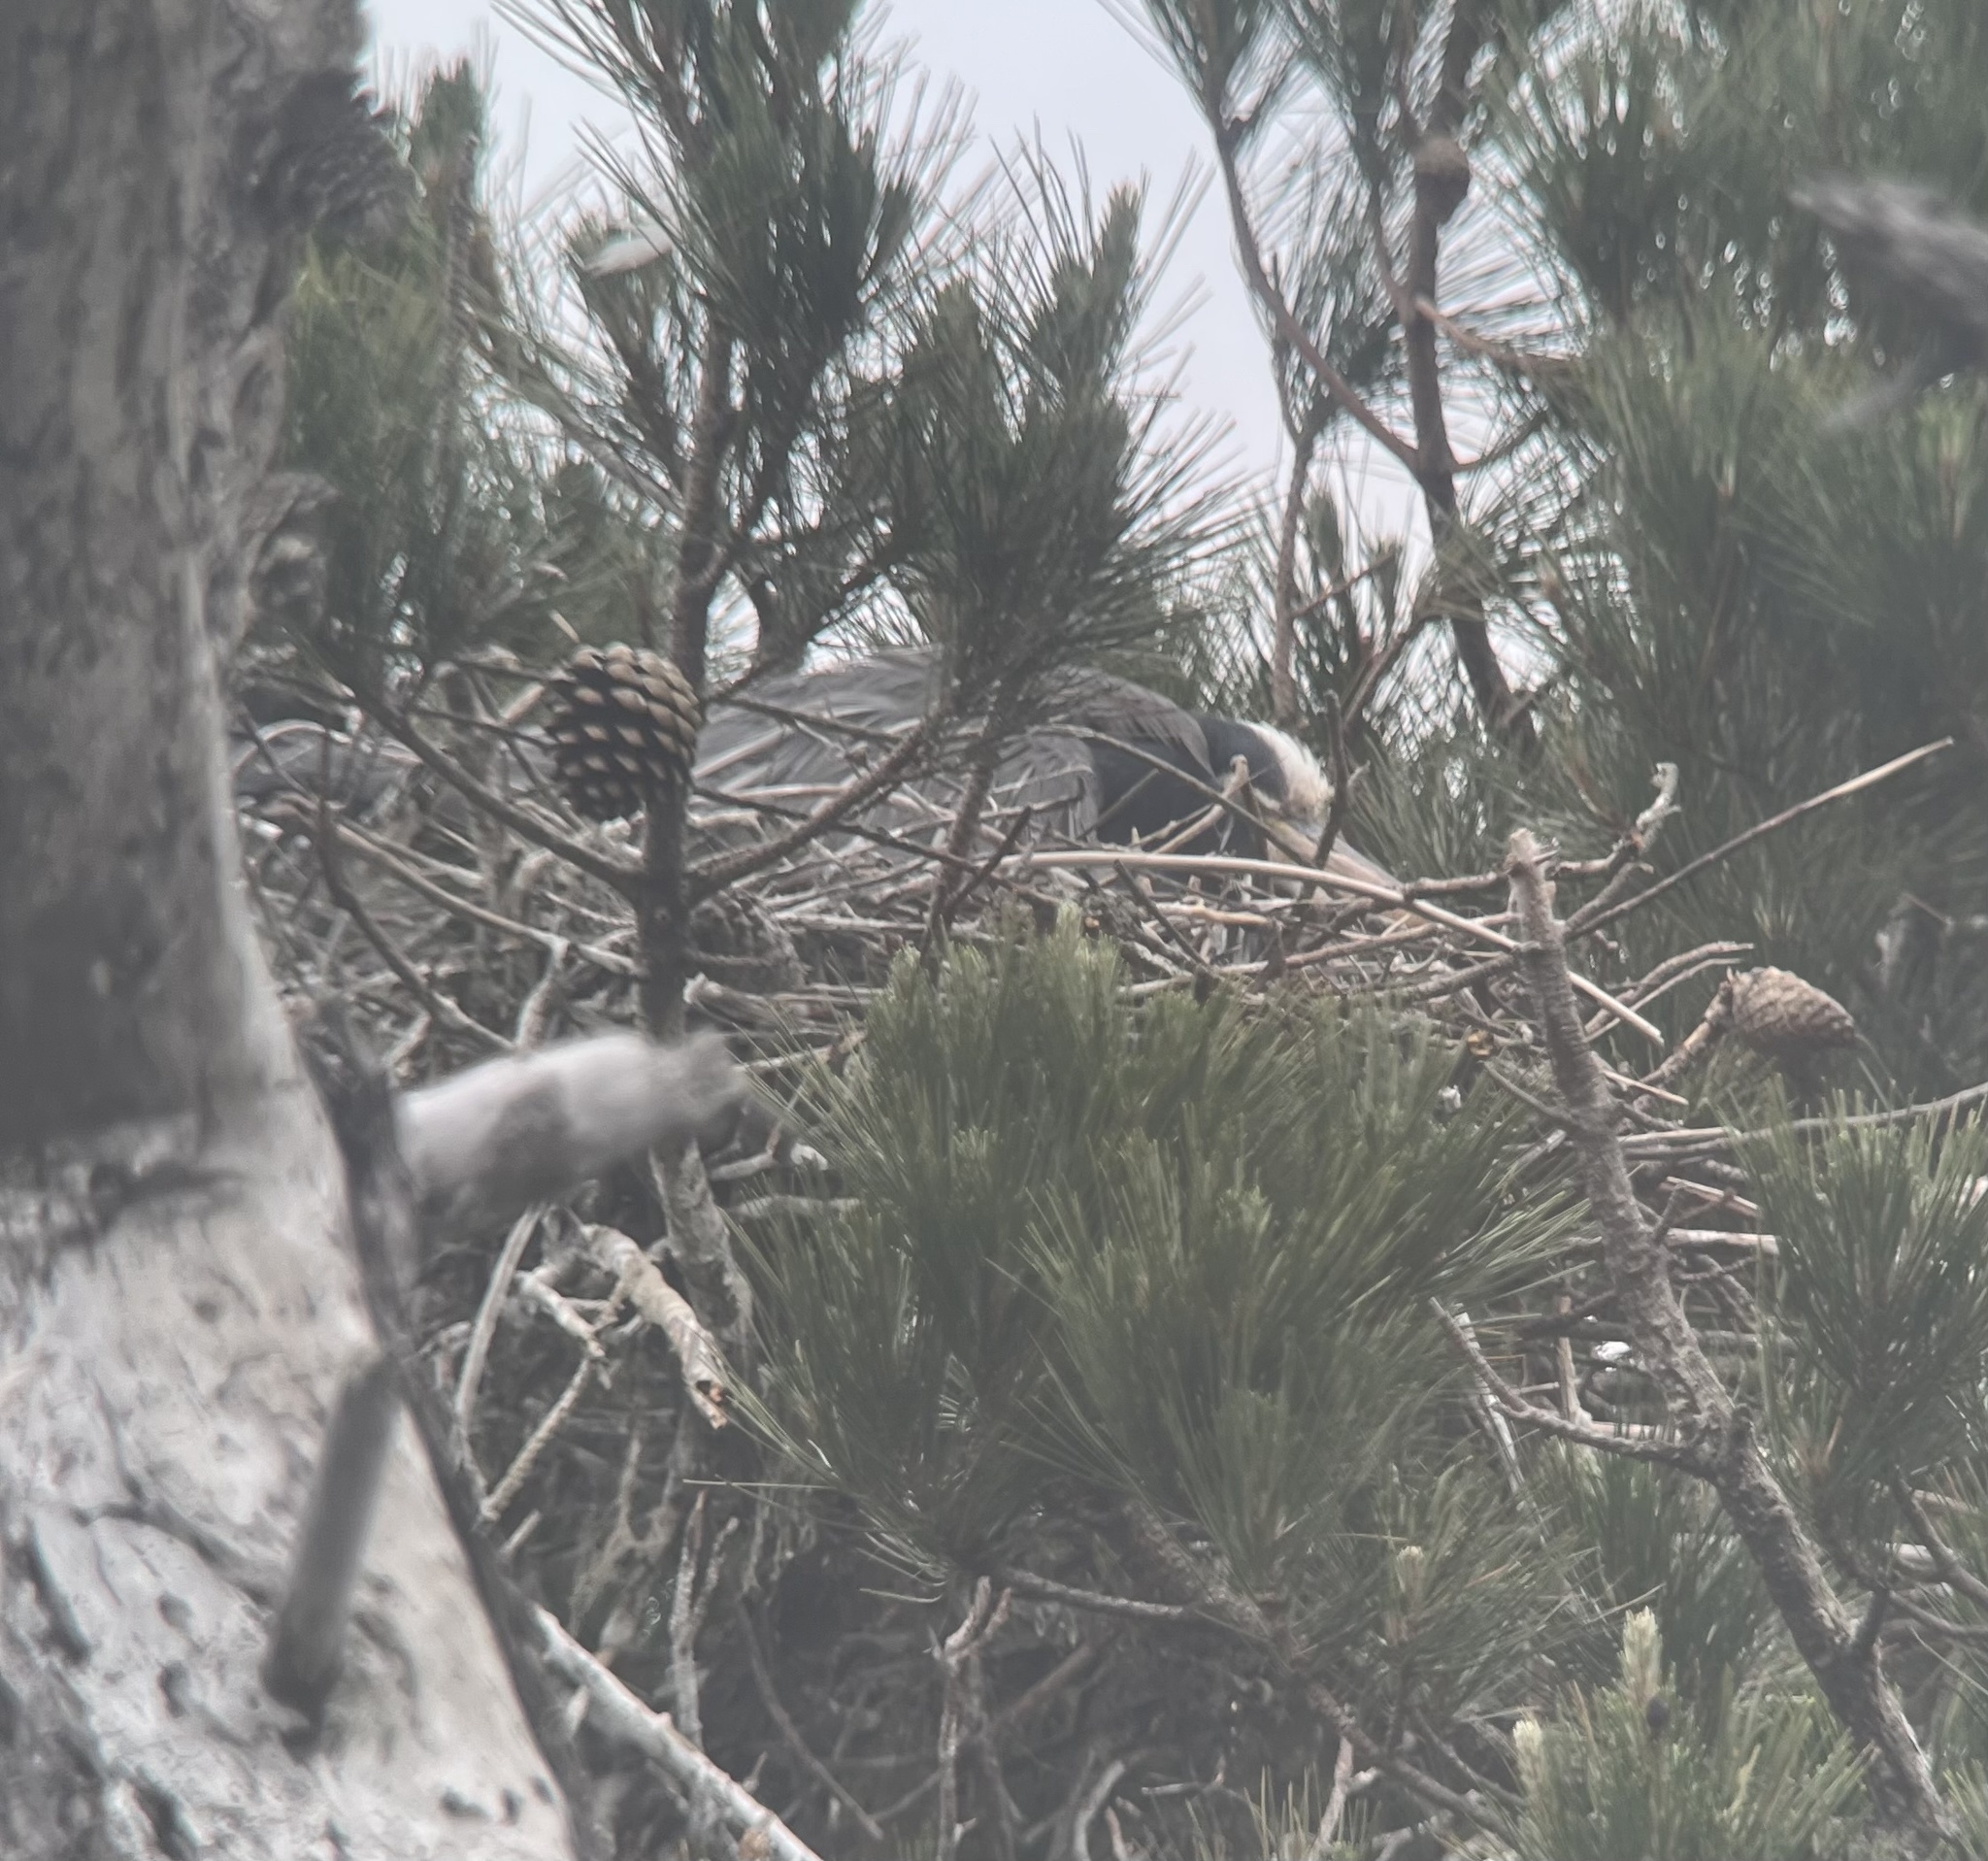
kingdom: Animalia
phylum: Chordata
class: Aves
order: Pelecaniformes
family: Ardeidae
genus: Ardea
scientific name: Ardea herodias
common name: Great blue heron
